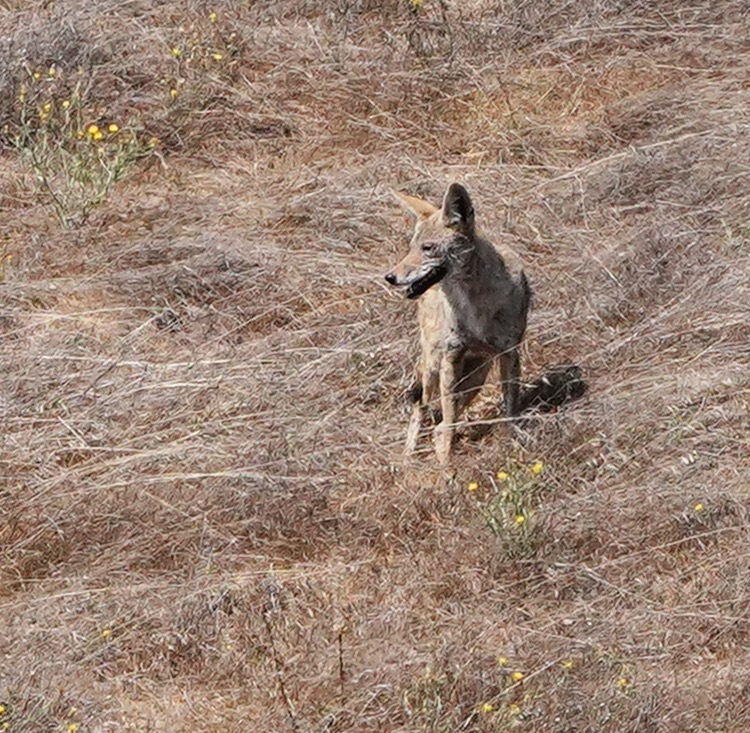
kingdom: Animalia
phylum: Chordata
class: Mammalia
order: Carnivora
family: Canidae
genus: Canis
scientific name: Canis latrans
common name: Coyote
